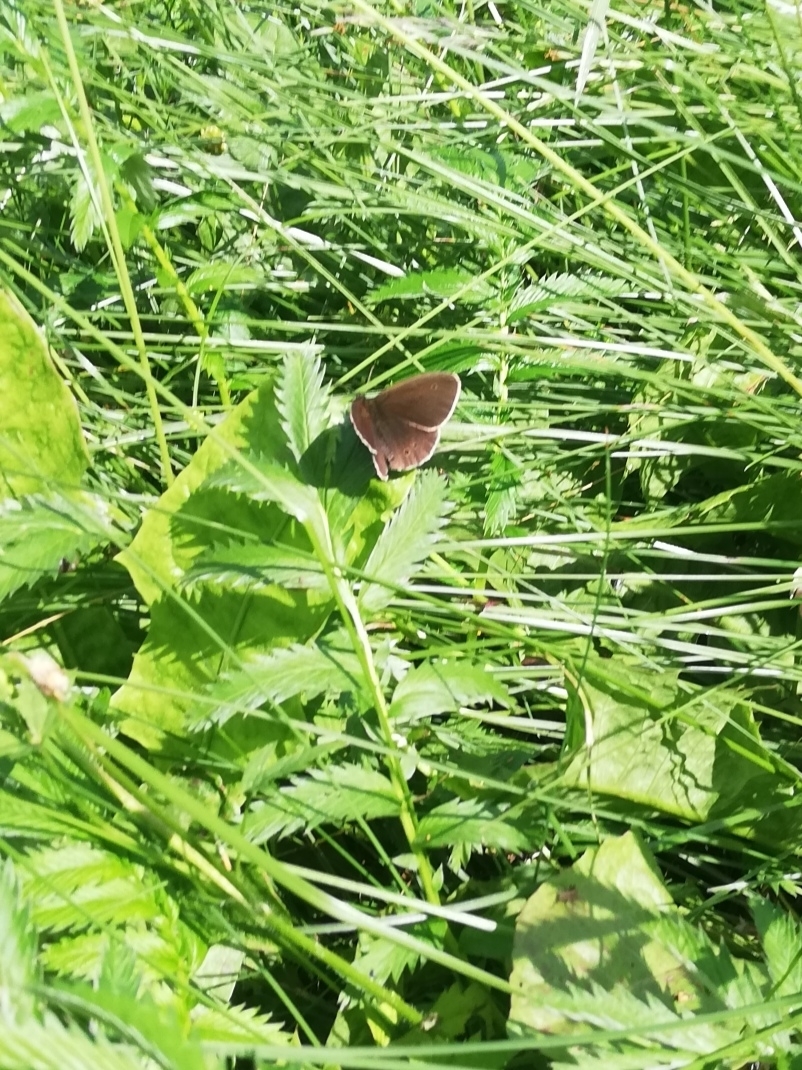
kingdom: Animalia
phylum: Arthropoda
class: Insecta
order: Lepidoptera
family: Nymphalidae
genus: Aphantopus
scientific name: Aphantopus hyperantus
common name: Ringlet
